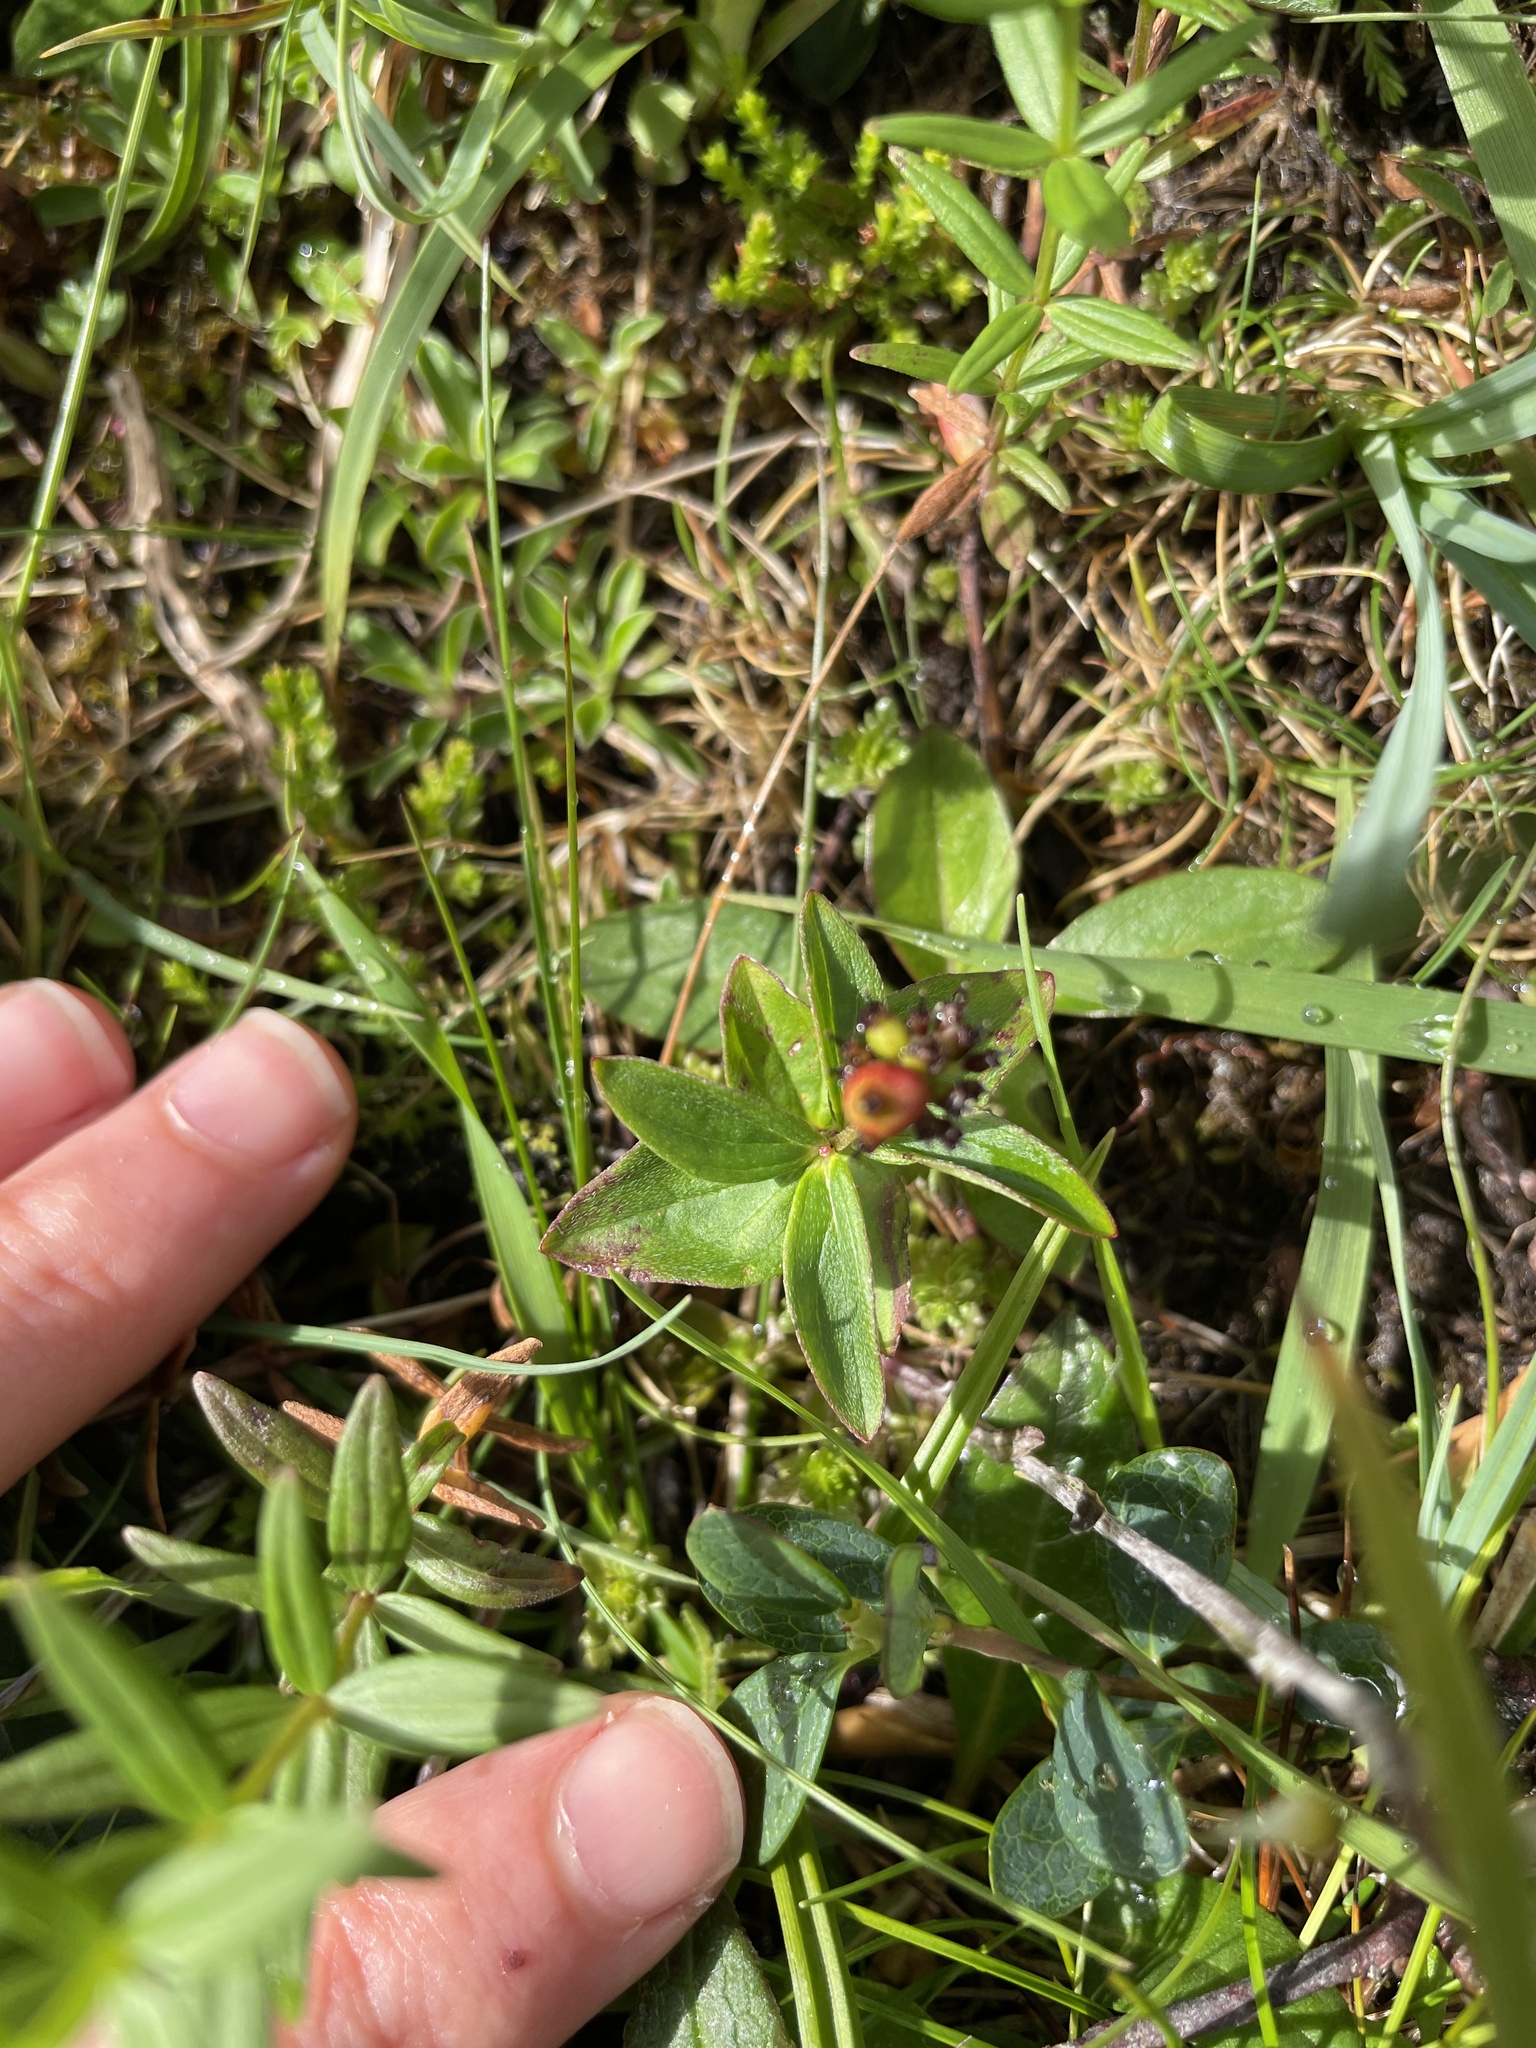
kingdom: Plantae
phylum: Tracheophyta
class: Magnoliopsida
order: Cornales
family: Cornaceae
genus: Cornus
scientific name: Cornus suecica
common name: Dwarf cornel
